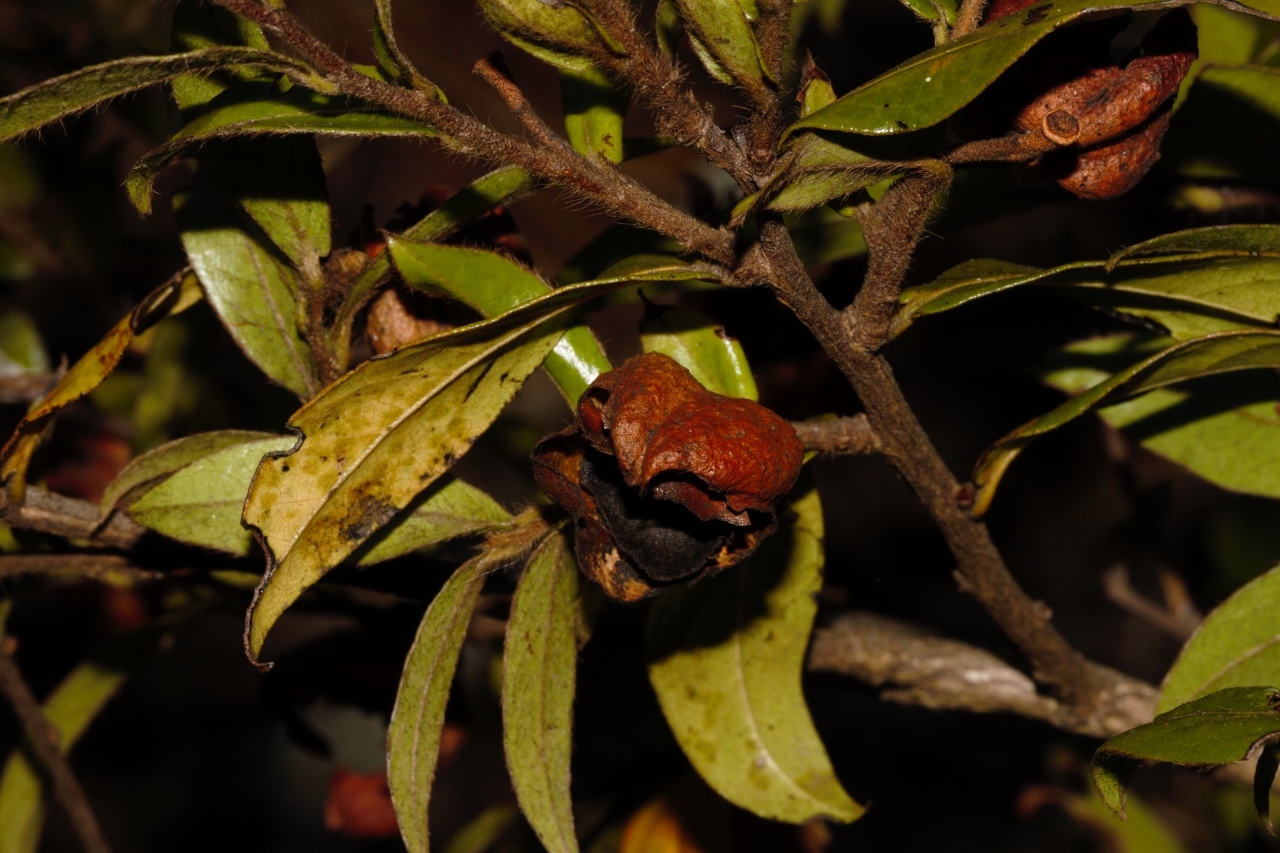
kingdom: Plantae
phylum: Tracheophyta
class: Magnoliopsida
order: Ericales
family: Ebenaceae
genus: Diospyros
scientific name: Diospyros whyteana
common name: Bladder-nut
